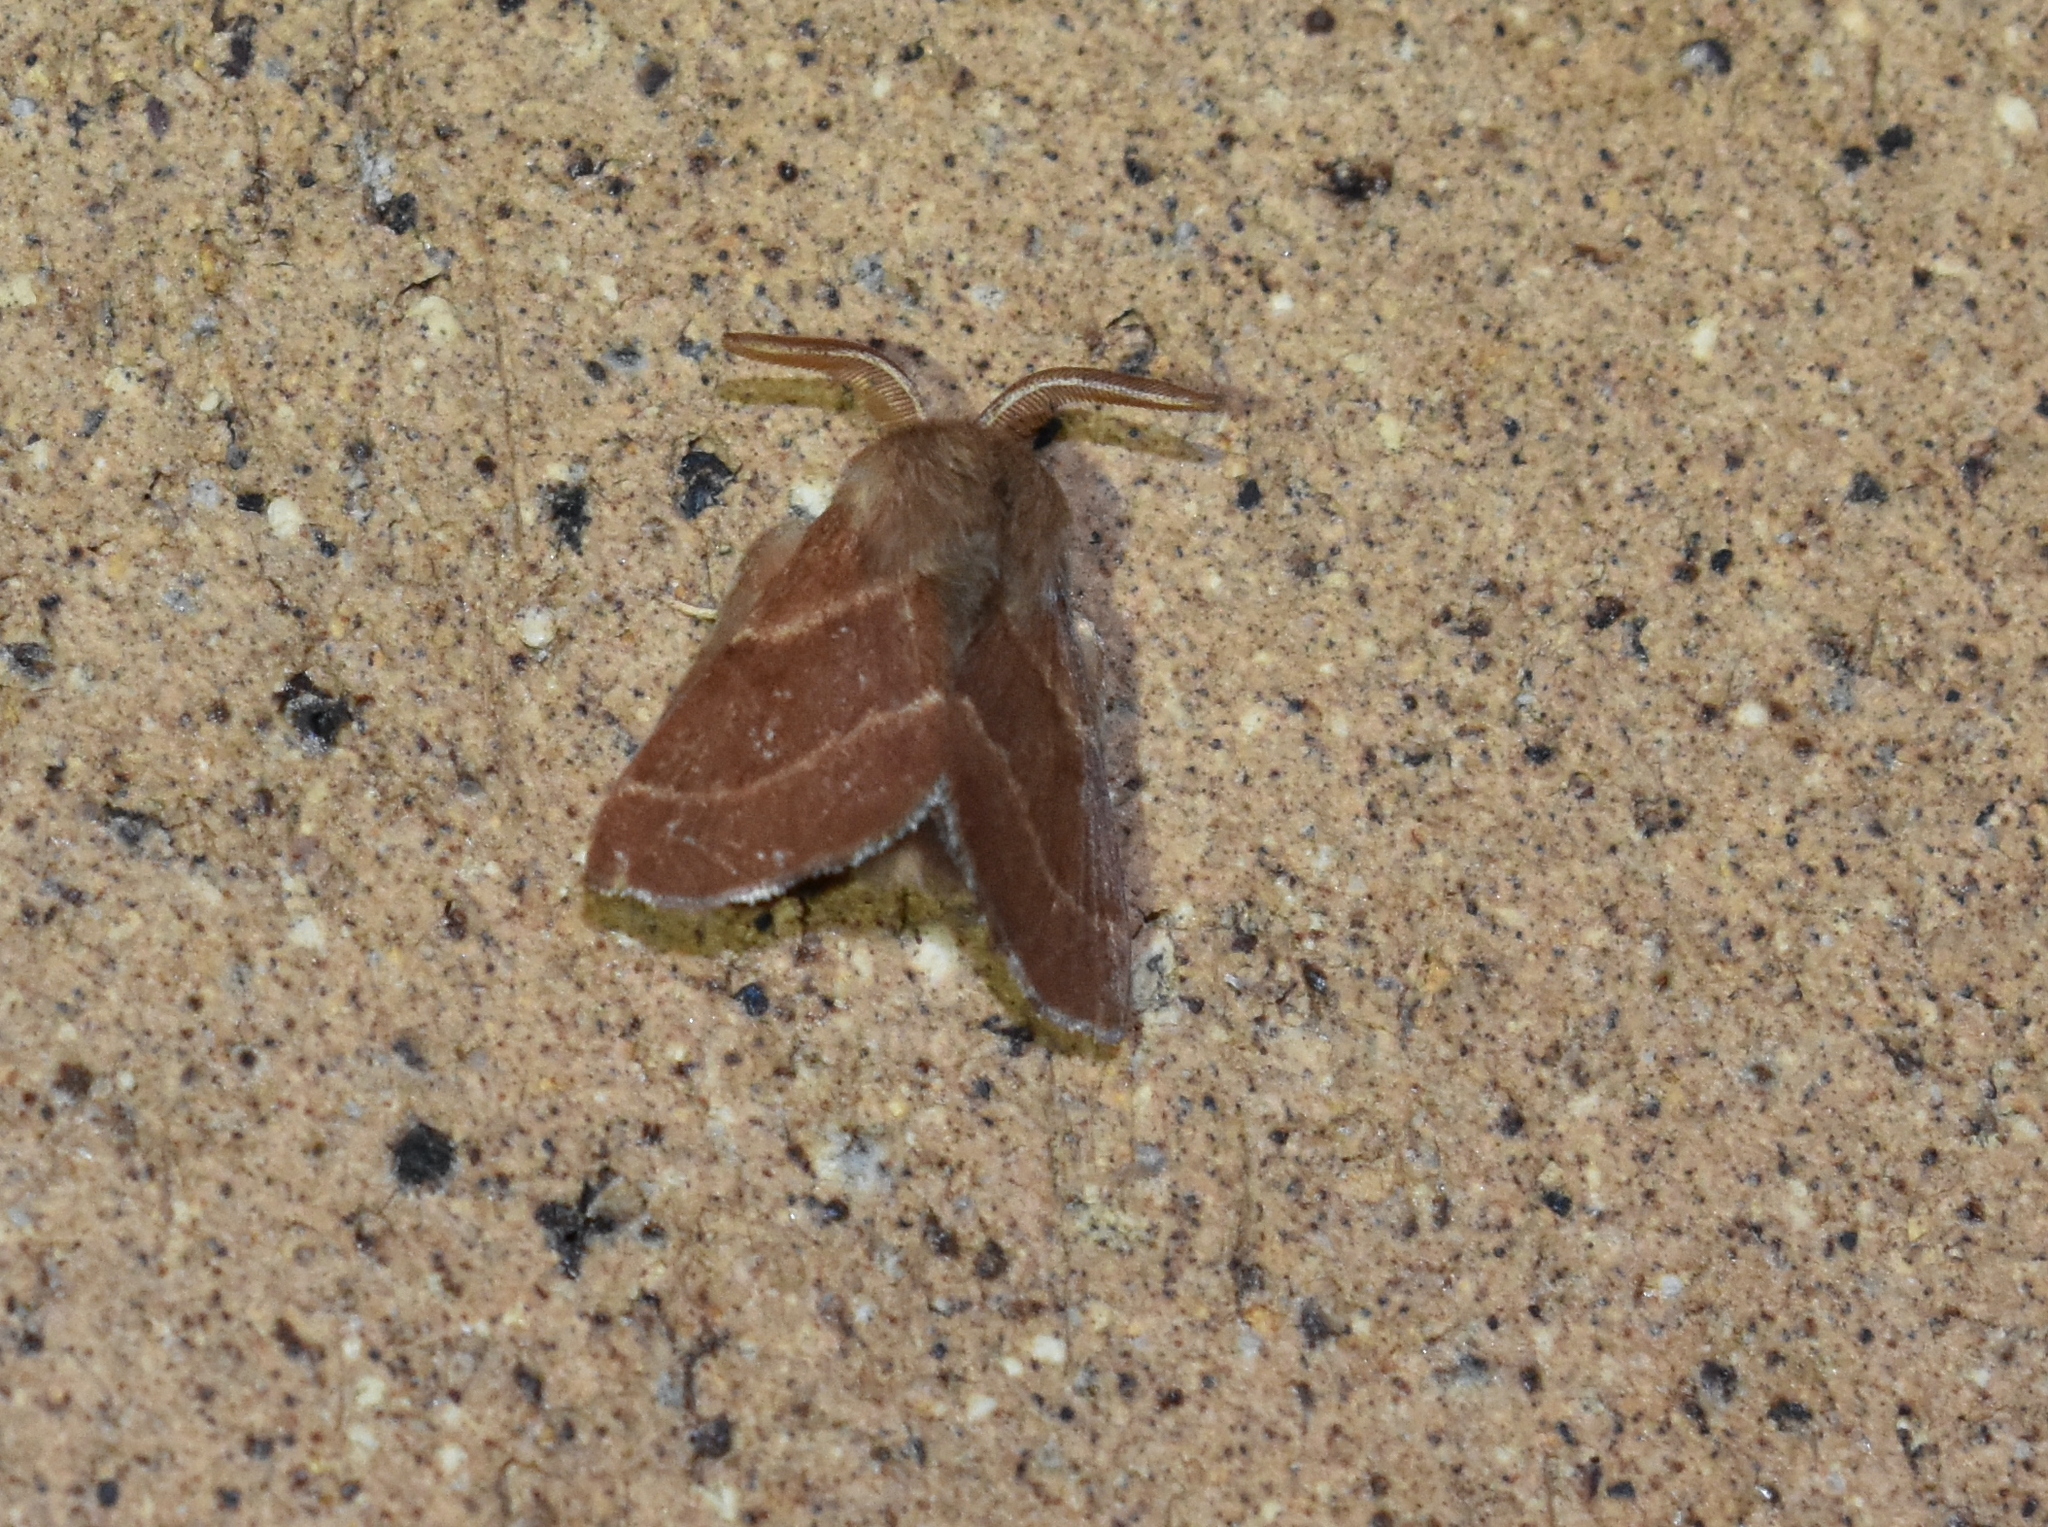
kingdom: Animalia
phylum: Arthropoda
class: Insecta
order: Lepidoptera
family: Lasiocampidae
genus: Malacosoma
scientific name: Malacosoma californica
